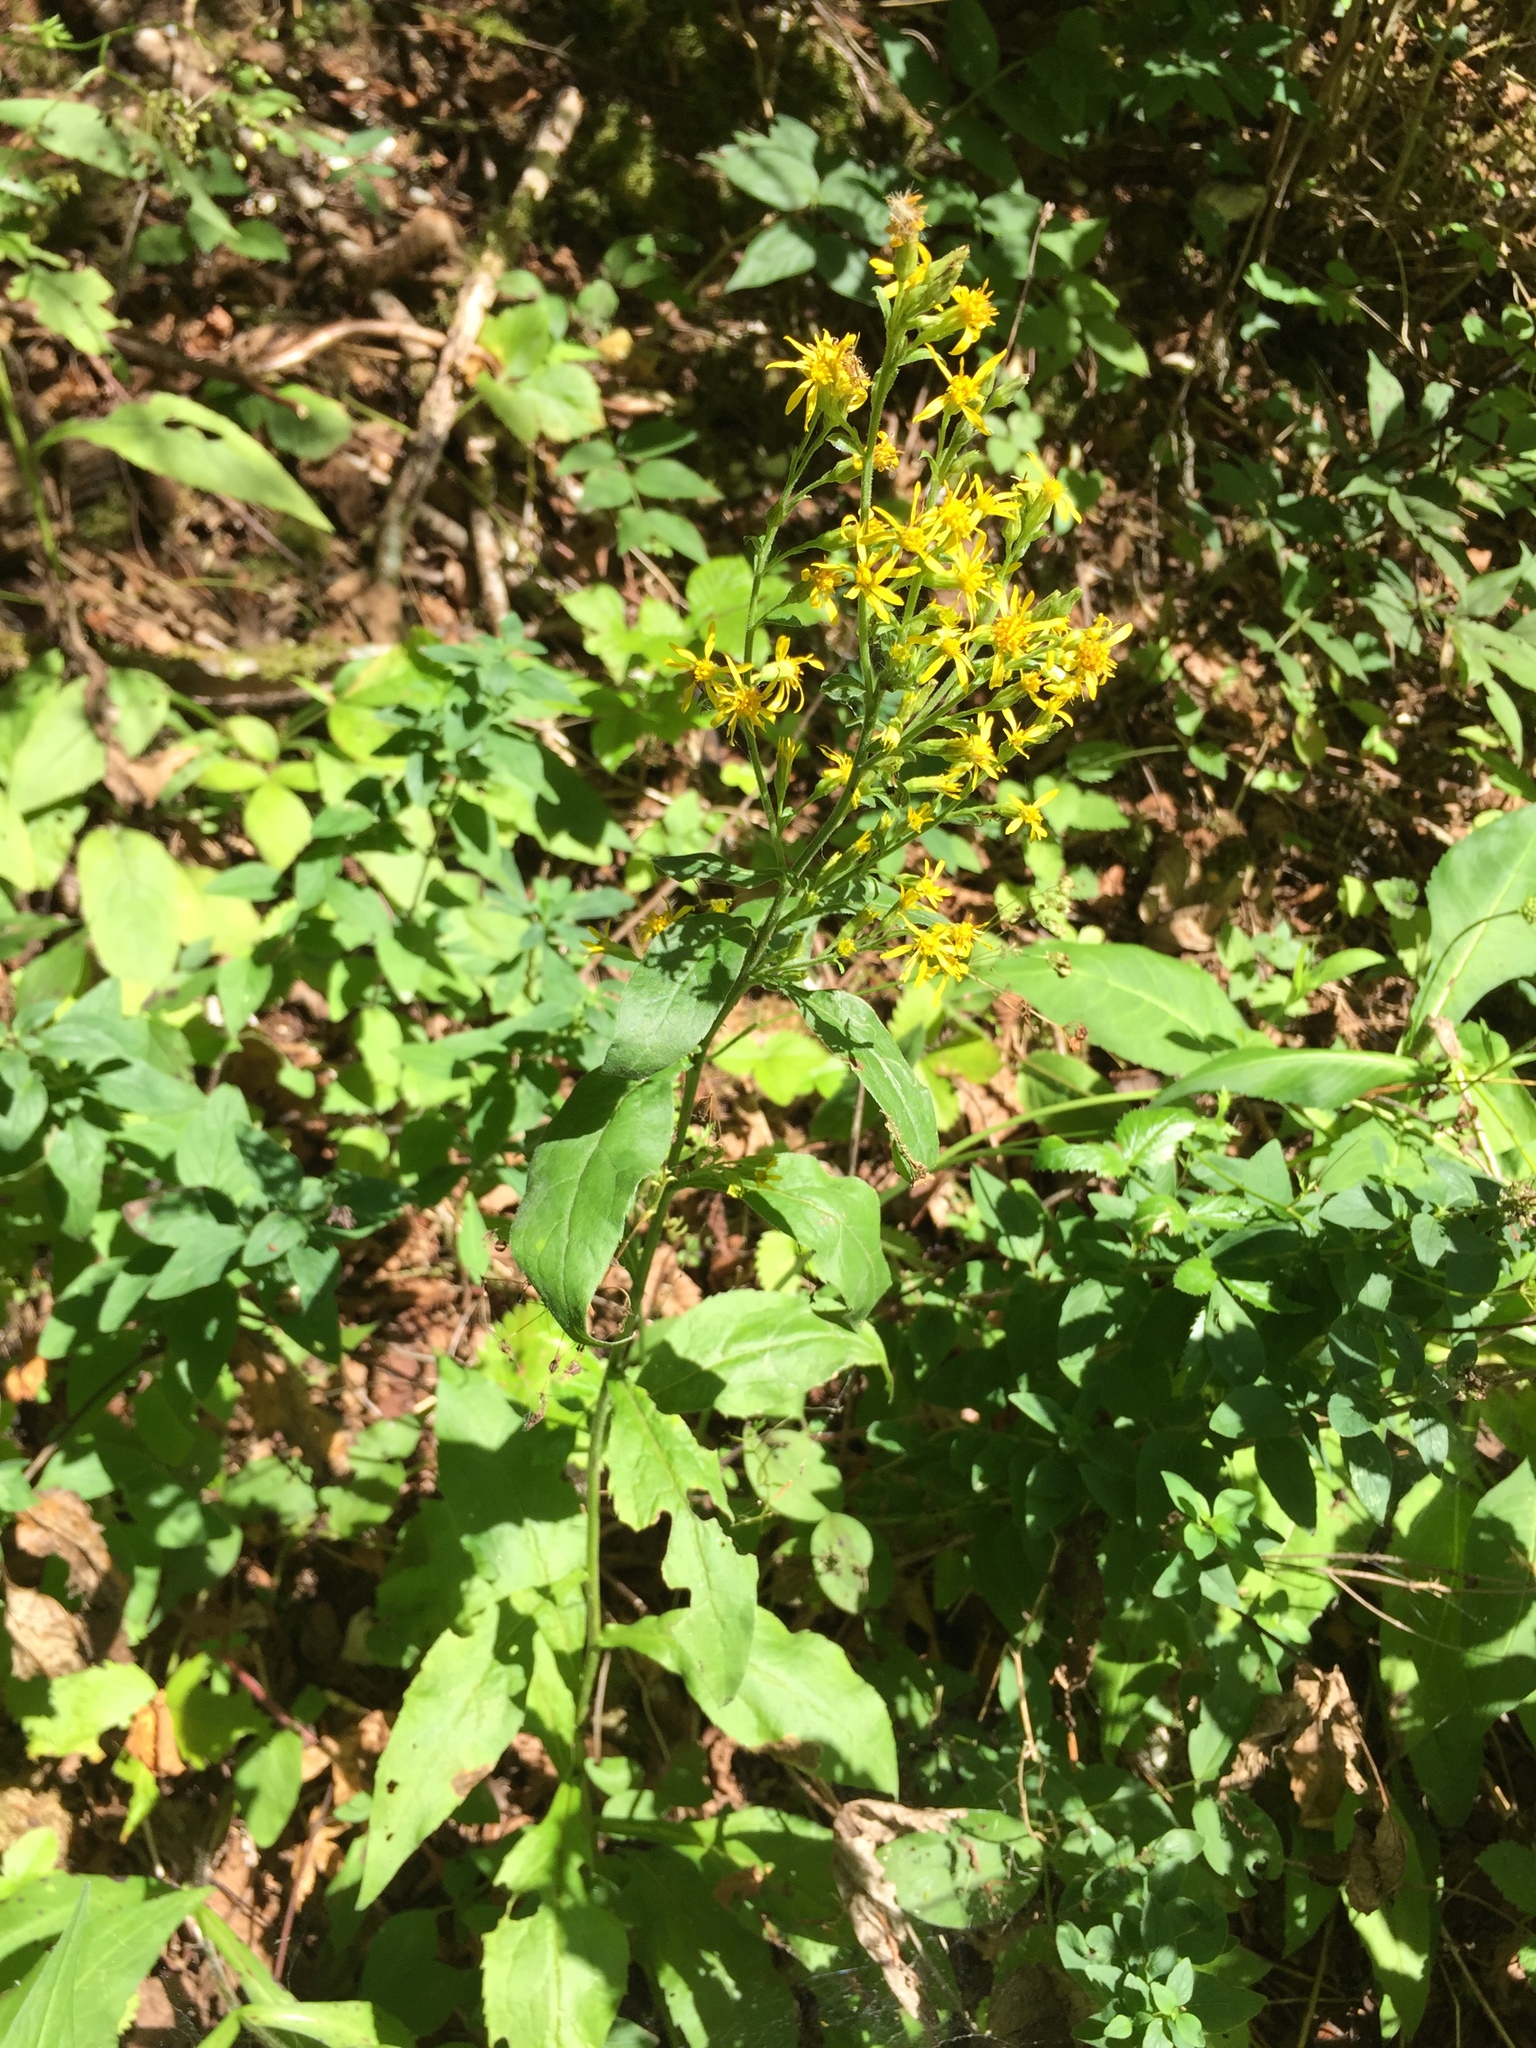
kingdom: Plantae
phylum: Tracheophyta
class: Magnoliopsida
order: Asterales
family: Asteraceae
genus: Solidago
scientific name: Solidago virgaurea
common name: Goldenrod
